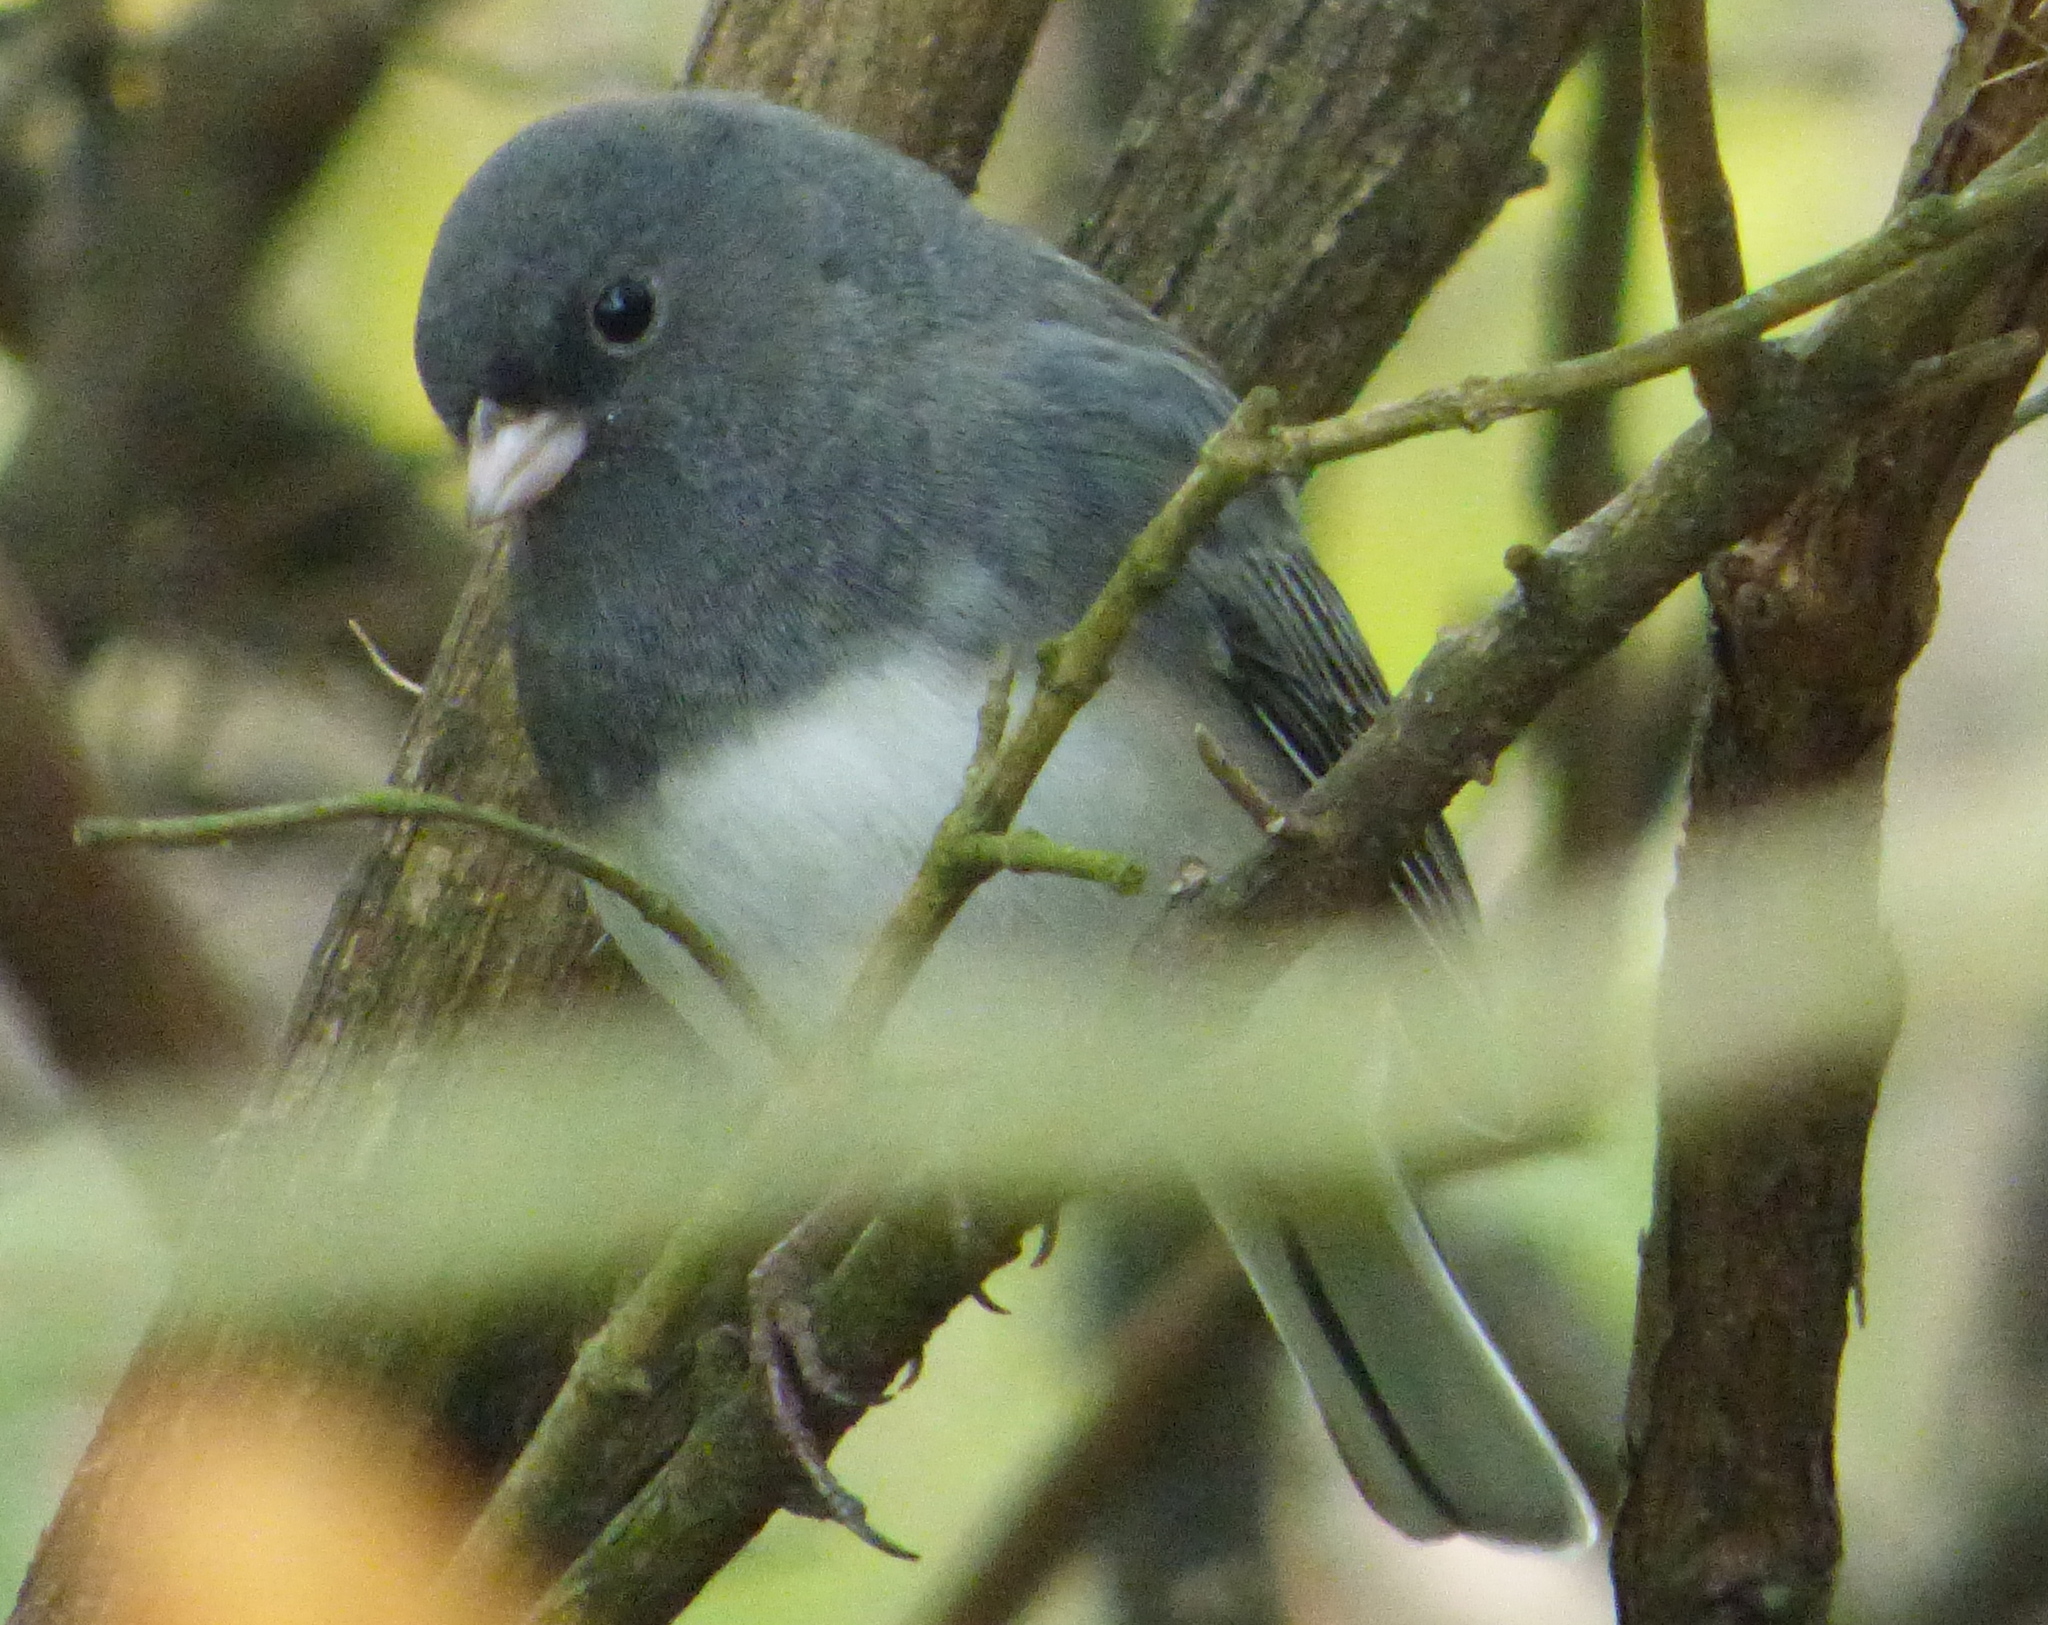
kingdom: Animalia
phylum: Chordata
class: Aves
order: Passeriformes
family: Passerellidae
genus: Junco
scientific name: Junco hyemalis
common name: Dark-eyed junco
